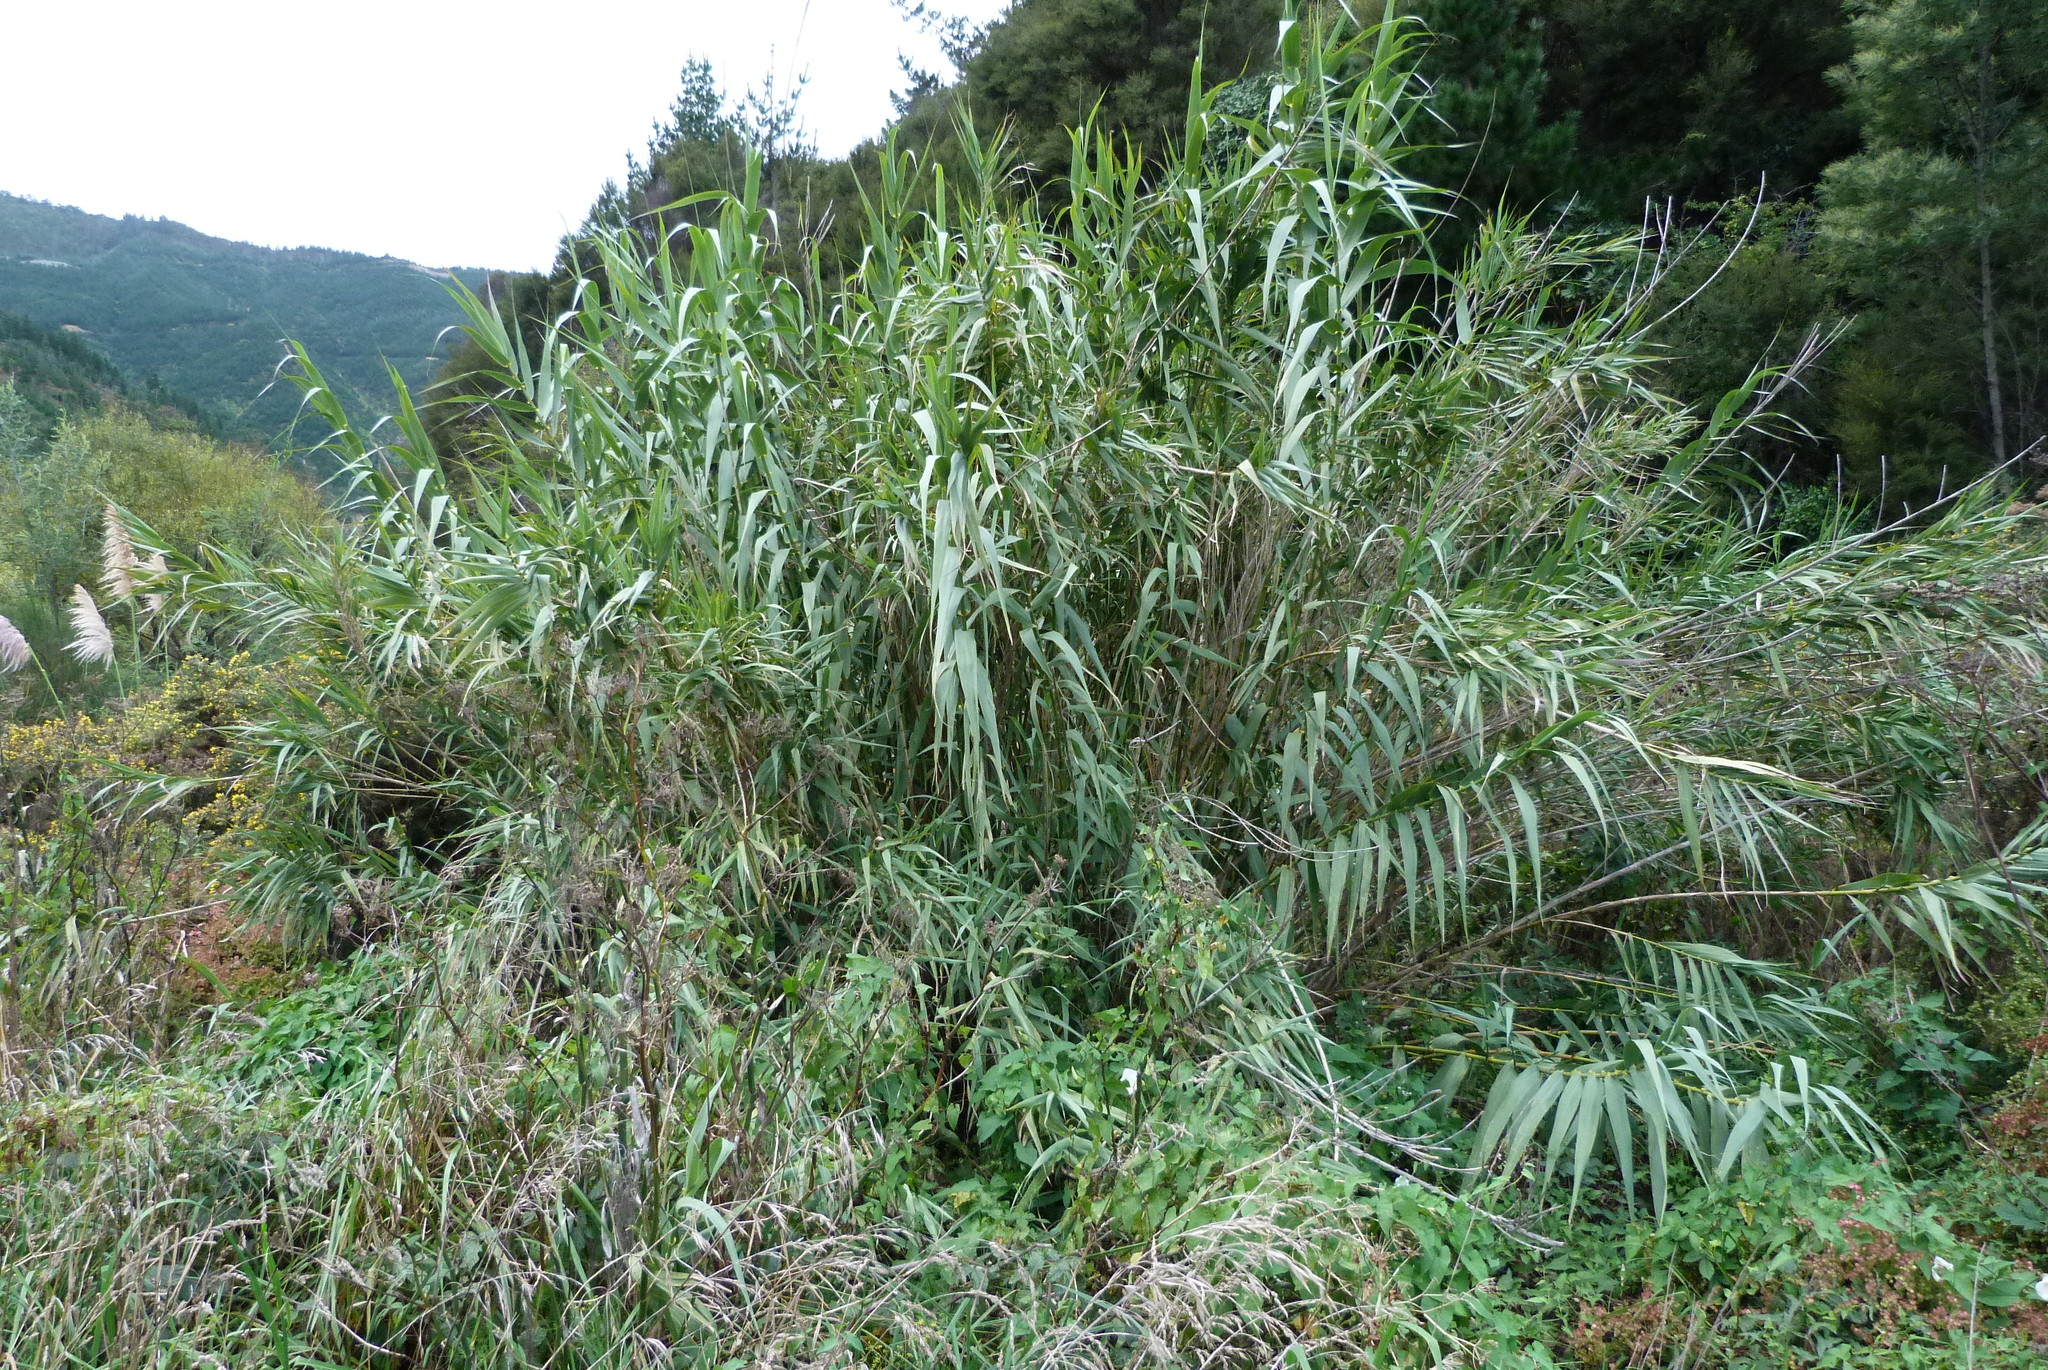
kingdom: Plantae
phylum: Tracheophyta
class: Liliopsida
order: Poales
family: Poaceae
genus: Arundo
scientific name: Arundo donax
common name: Giant reed
